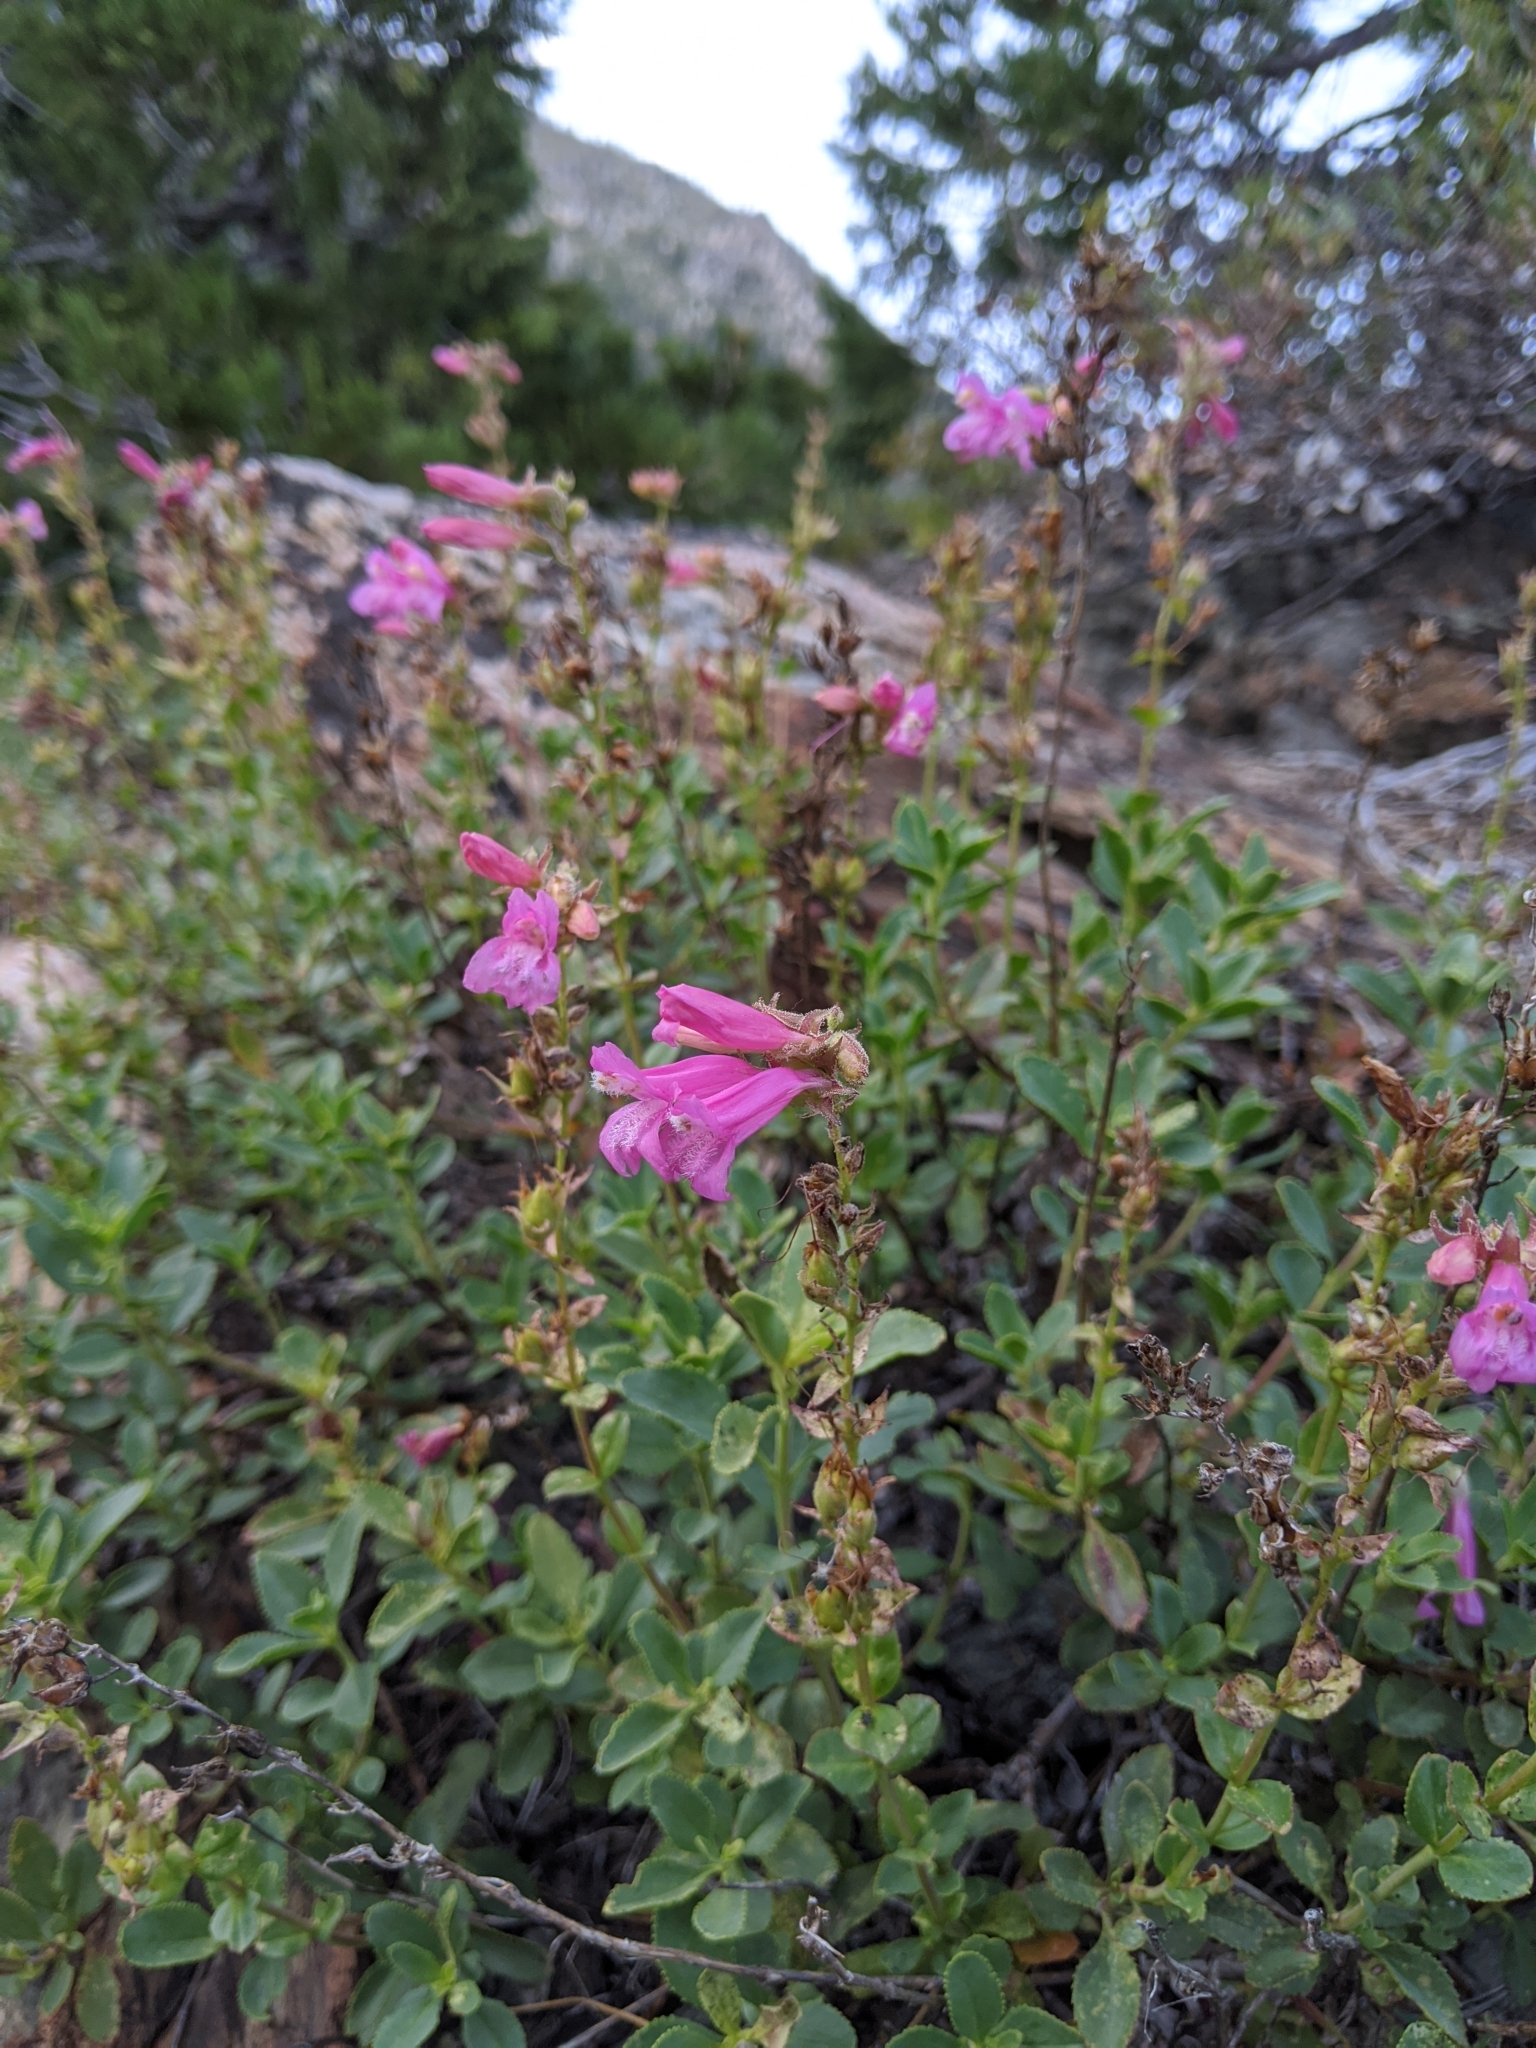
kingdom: Plantae
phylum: Tracheophyta
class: Magnoliopsida
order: Lamiales
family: Plantaginaceae
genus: Penstemon
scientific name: Penstemon newberryi
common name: Mountain-pride
